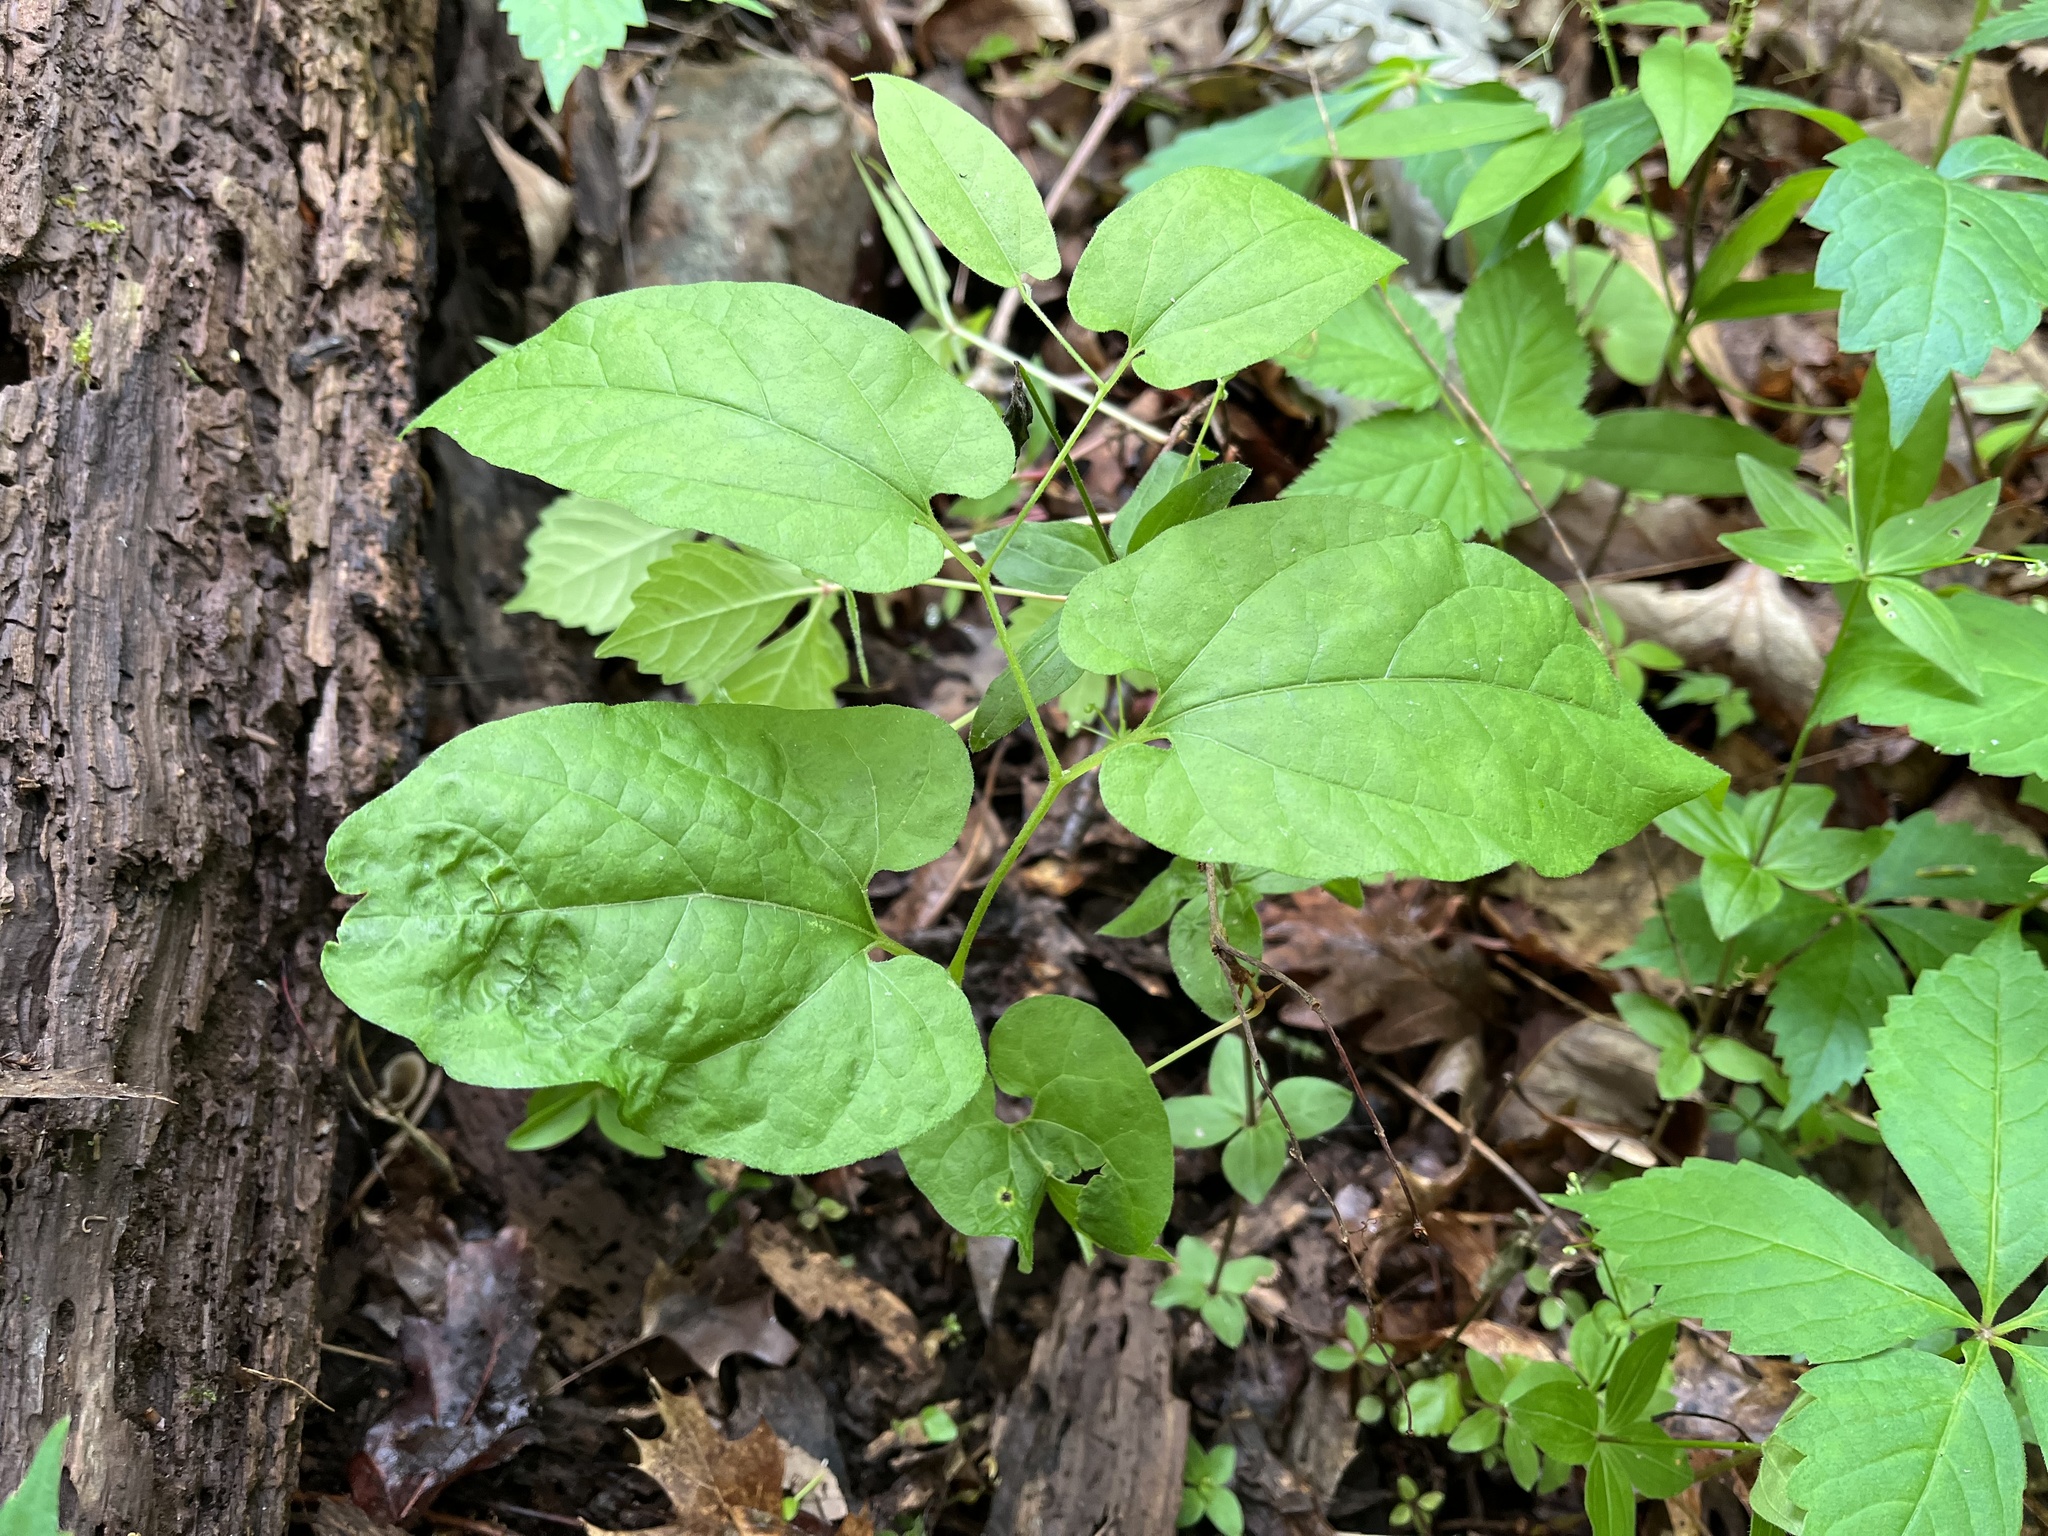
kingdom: Plantae
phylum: Tracheophyta
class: Magnoliopsida
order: Piperales
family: Aristolochiaceae
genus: Endodeca
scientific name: Endodeca serpentaria
